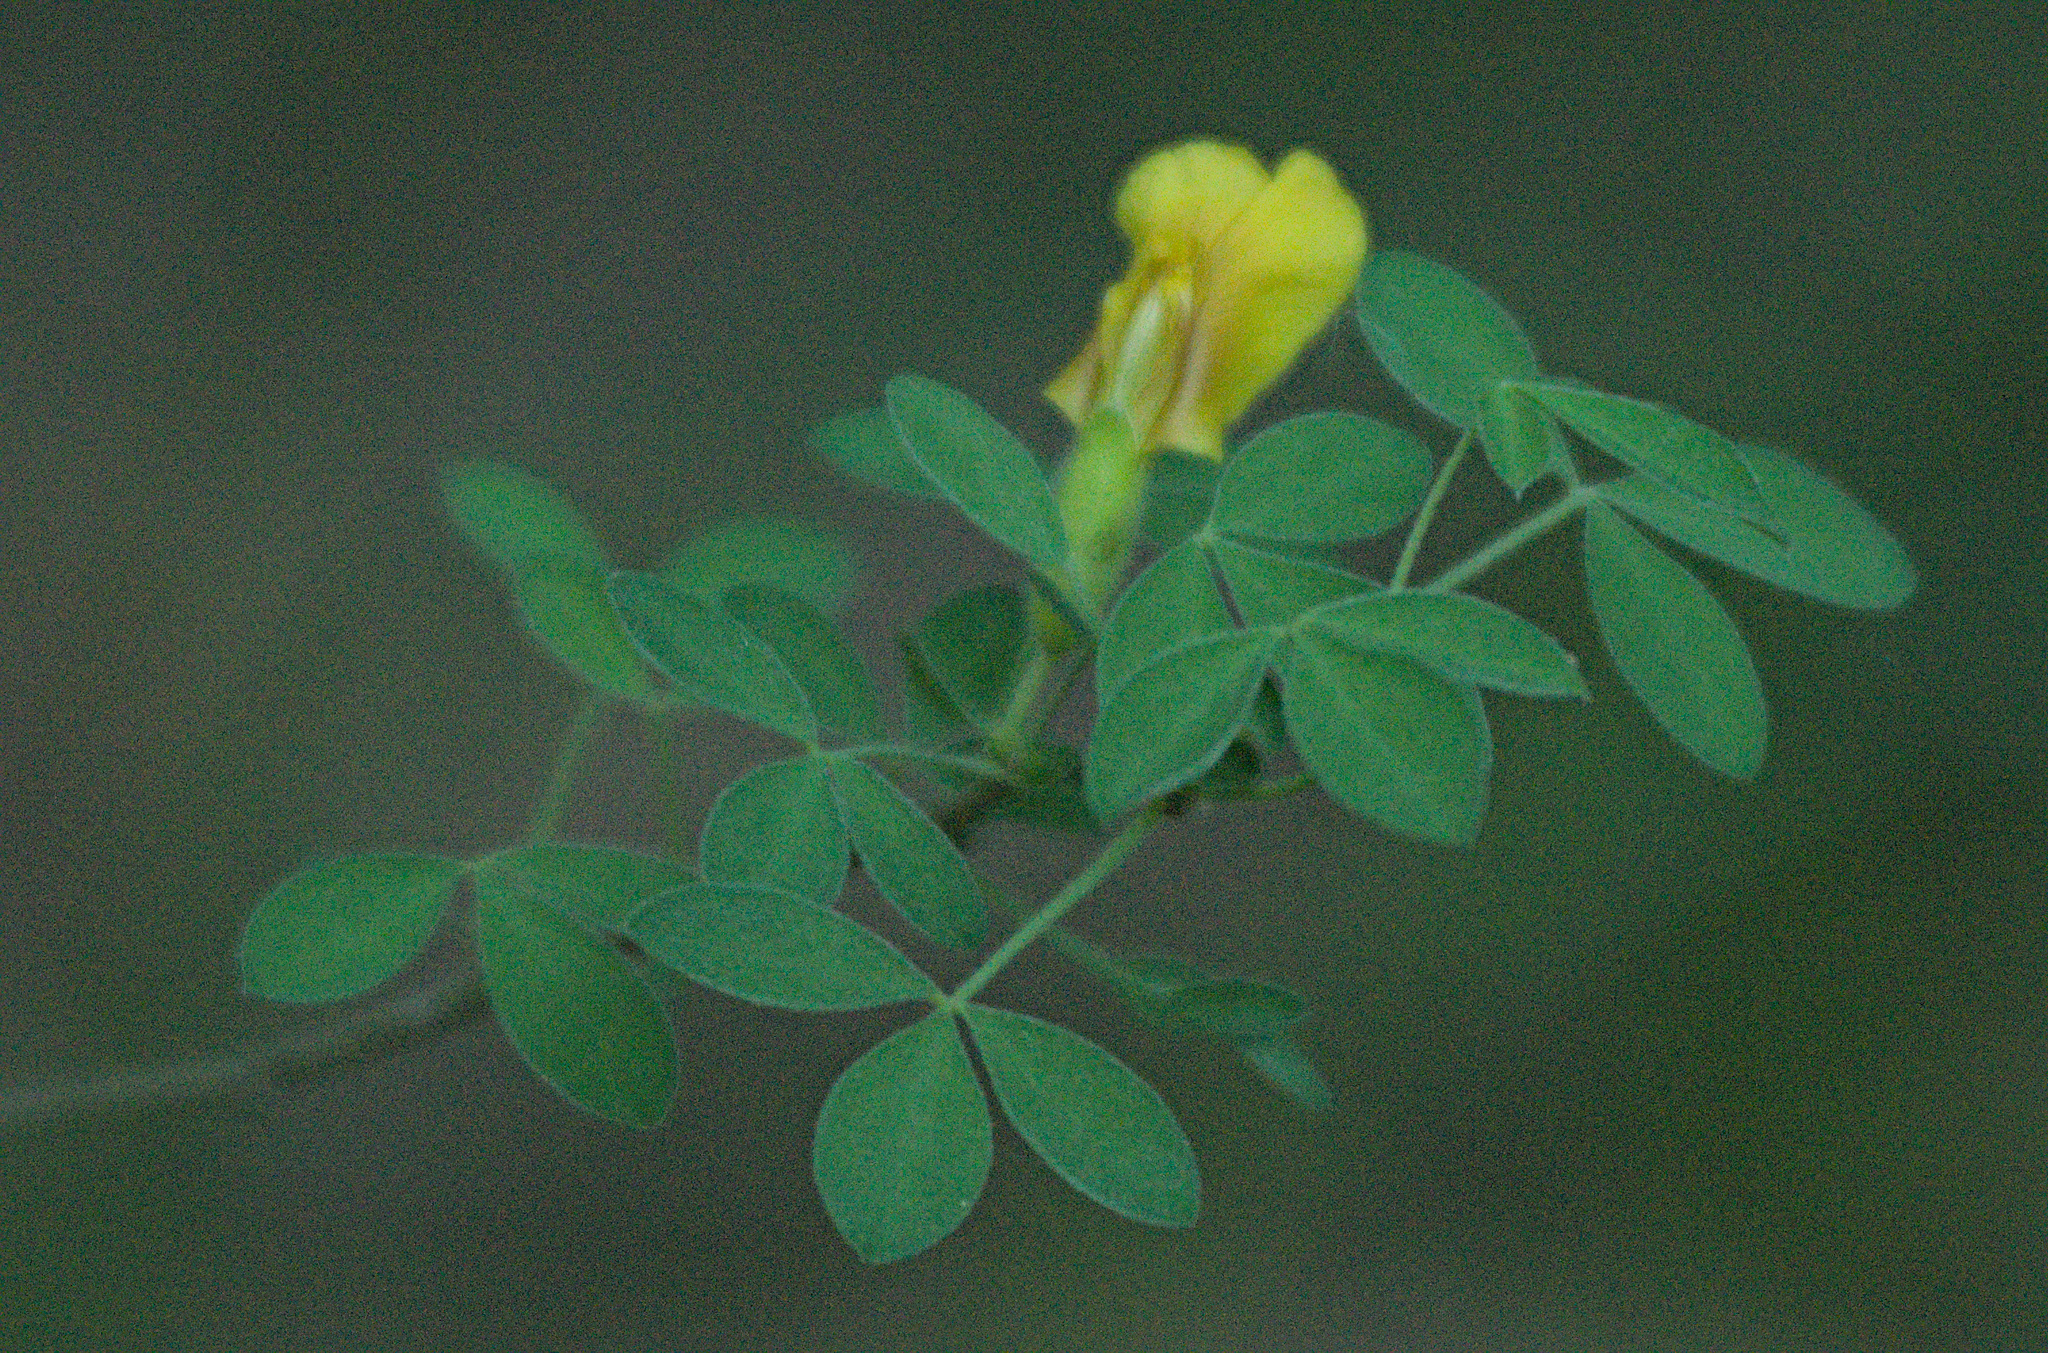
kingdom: Plantae
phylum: Tracheophyta
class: Magnoliopsida
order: Fabales
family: Fabaceae
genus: Chamaecytisus
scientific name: Chamaecytisus ruthenicus
